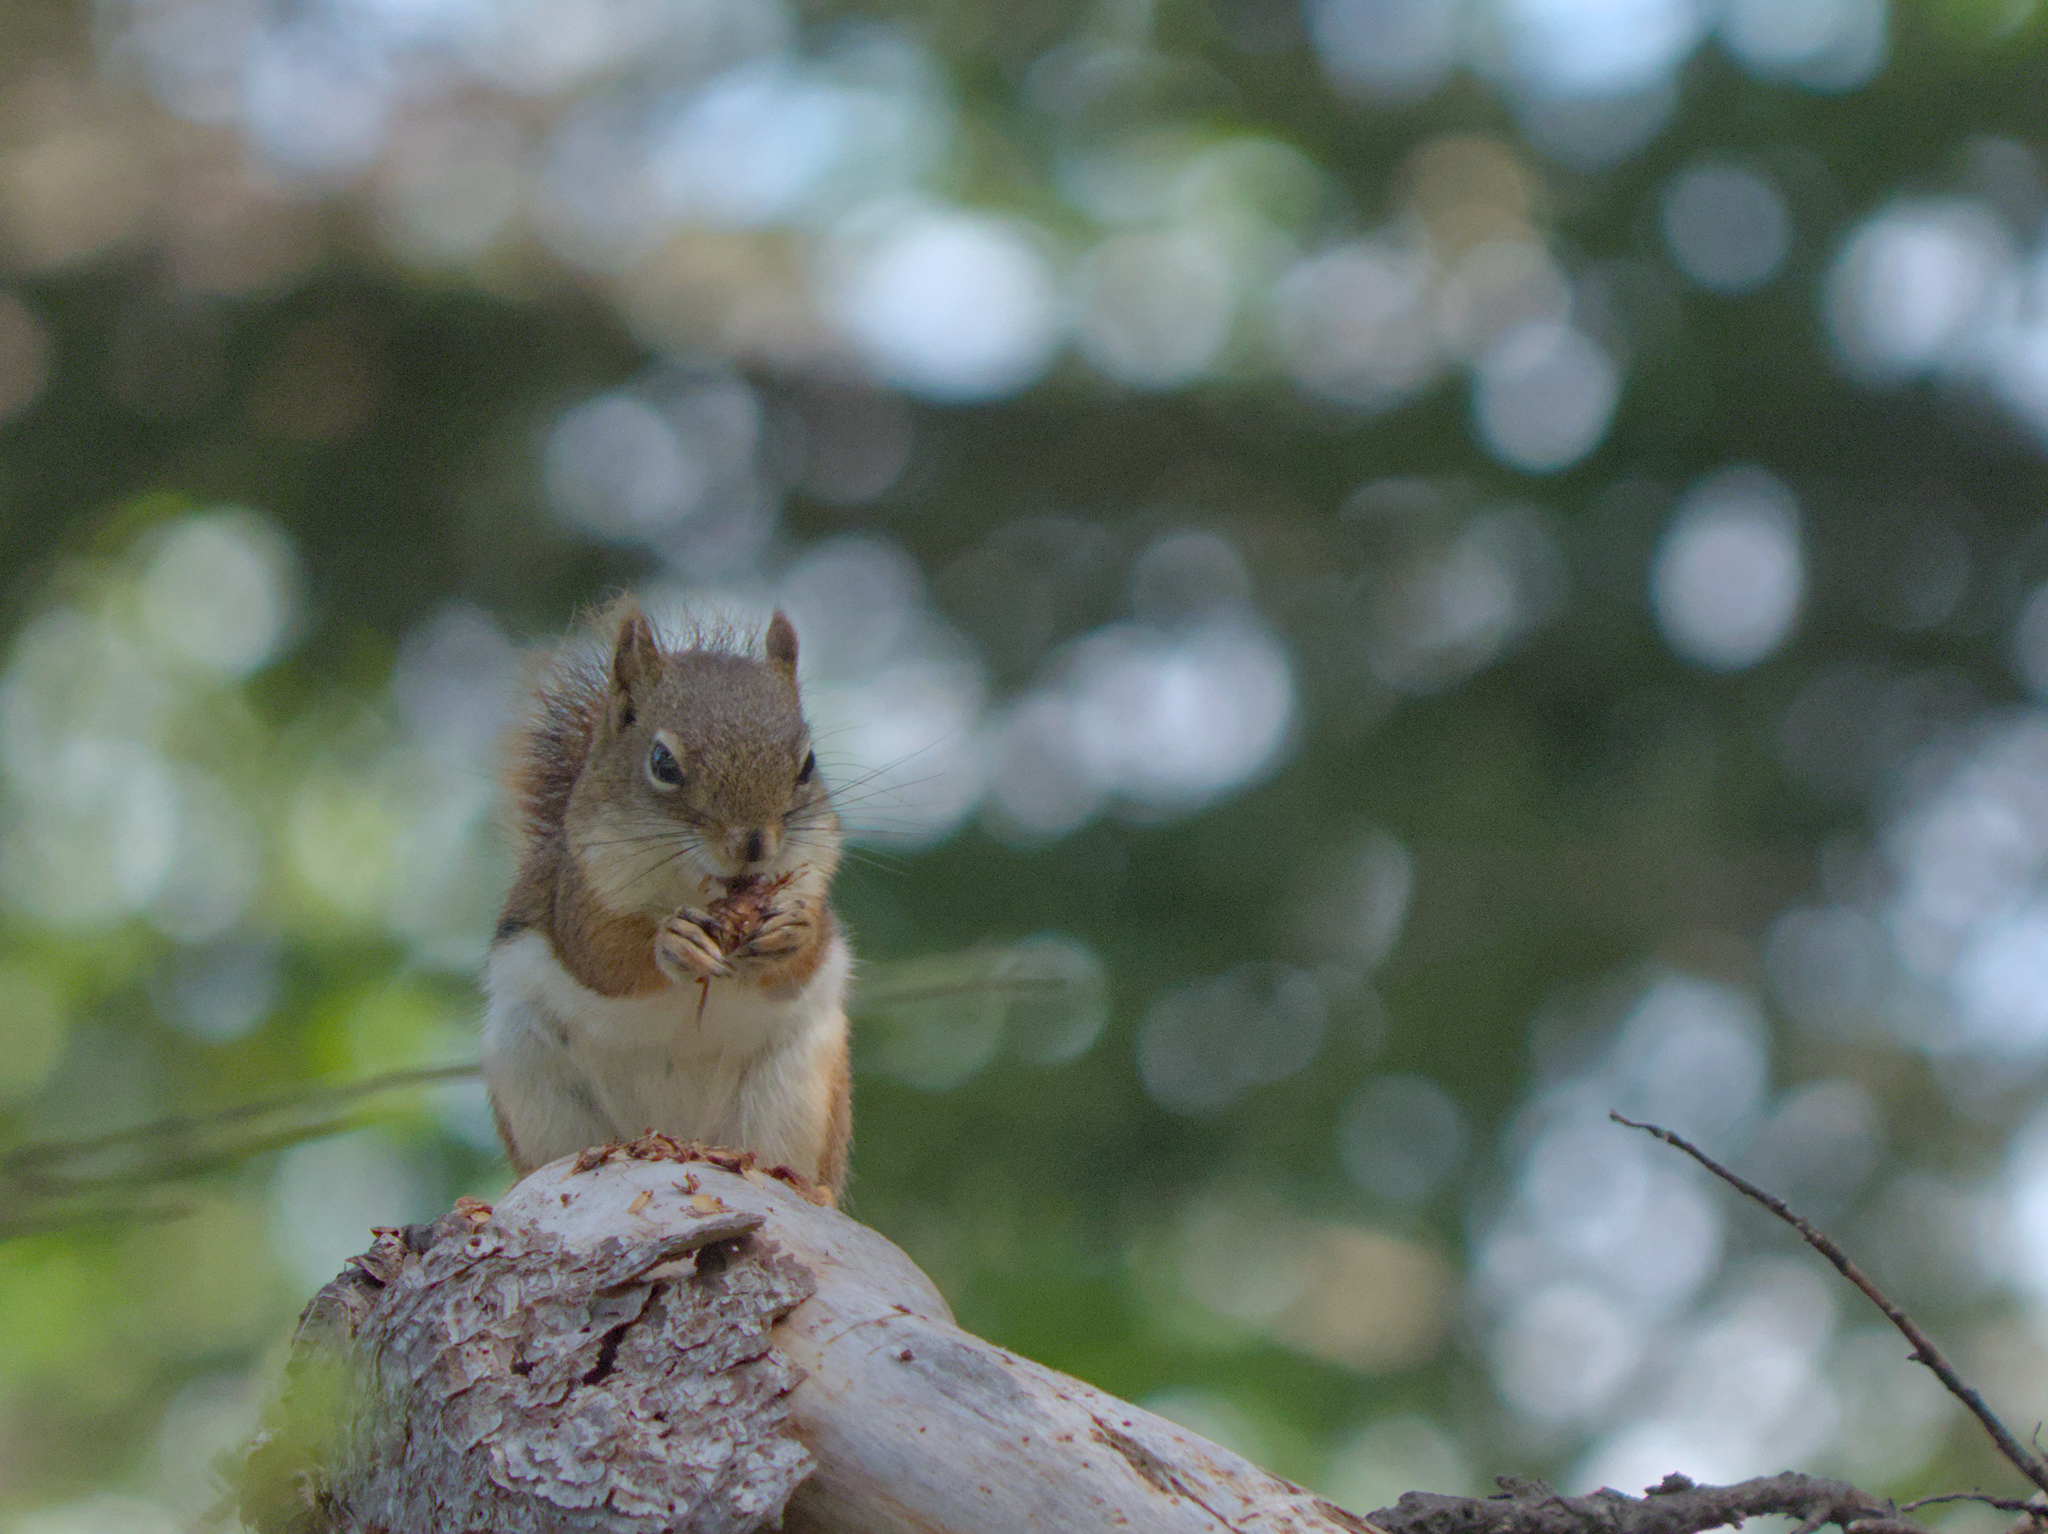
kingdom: Animalia
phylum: Chordata
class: Mammalia
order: Rodentia
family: Sciuridae
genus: Tamiasciurus
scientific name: Tamiasciurus hudsonicus
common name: Red squirrel
